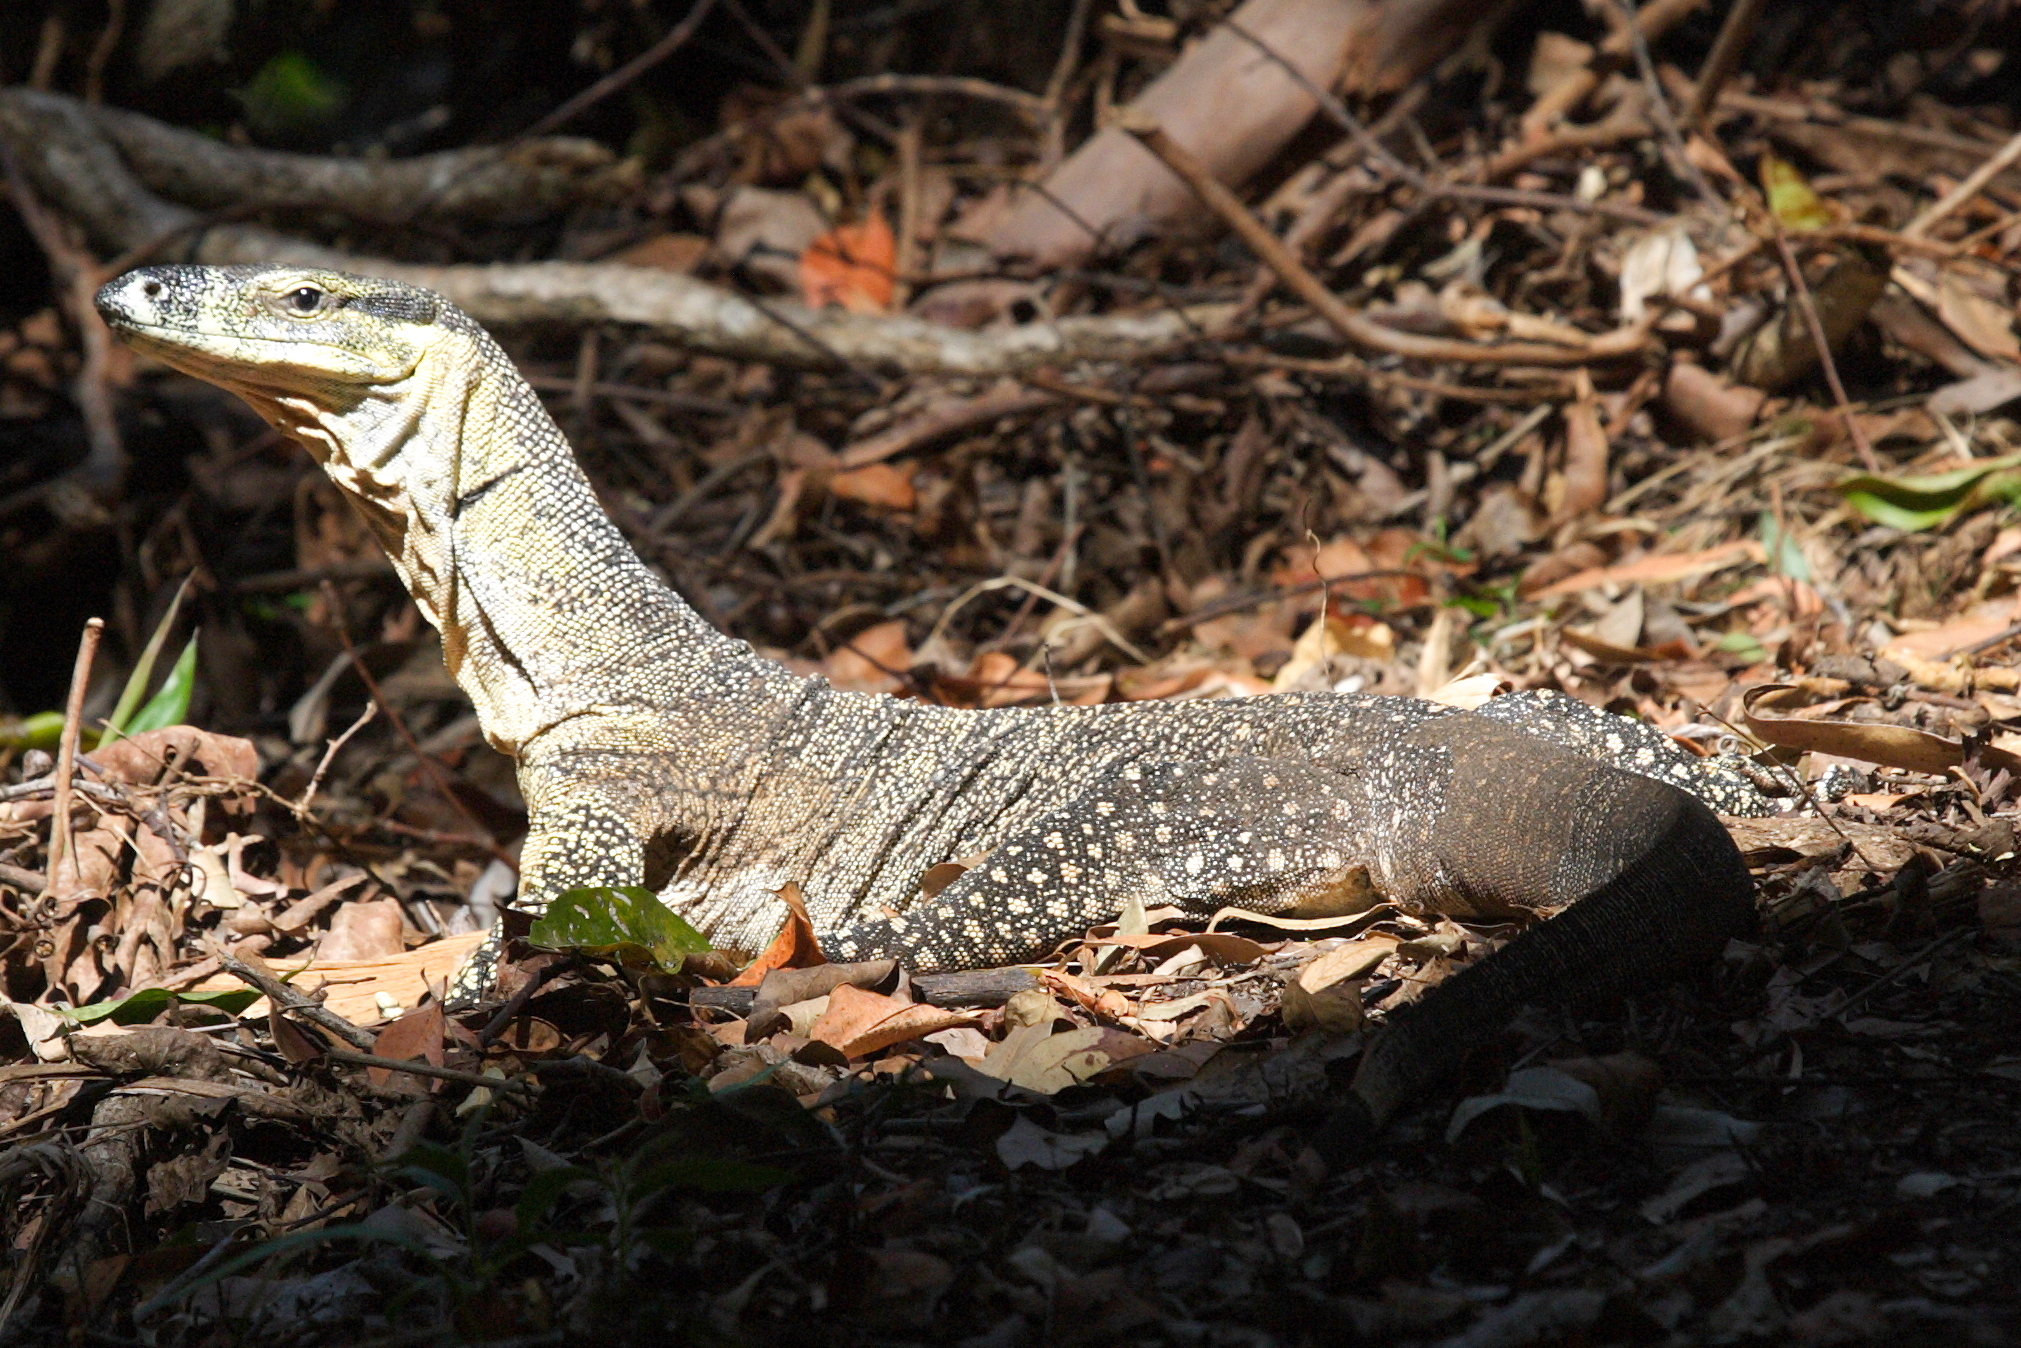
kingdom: Animalia
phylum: Chordata
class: Squamata
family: Varanidae
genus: Varanus
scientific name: Varanus varius
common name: Lace monitor
